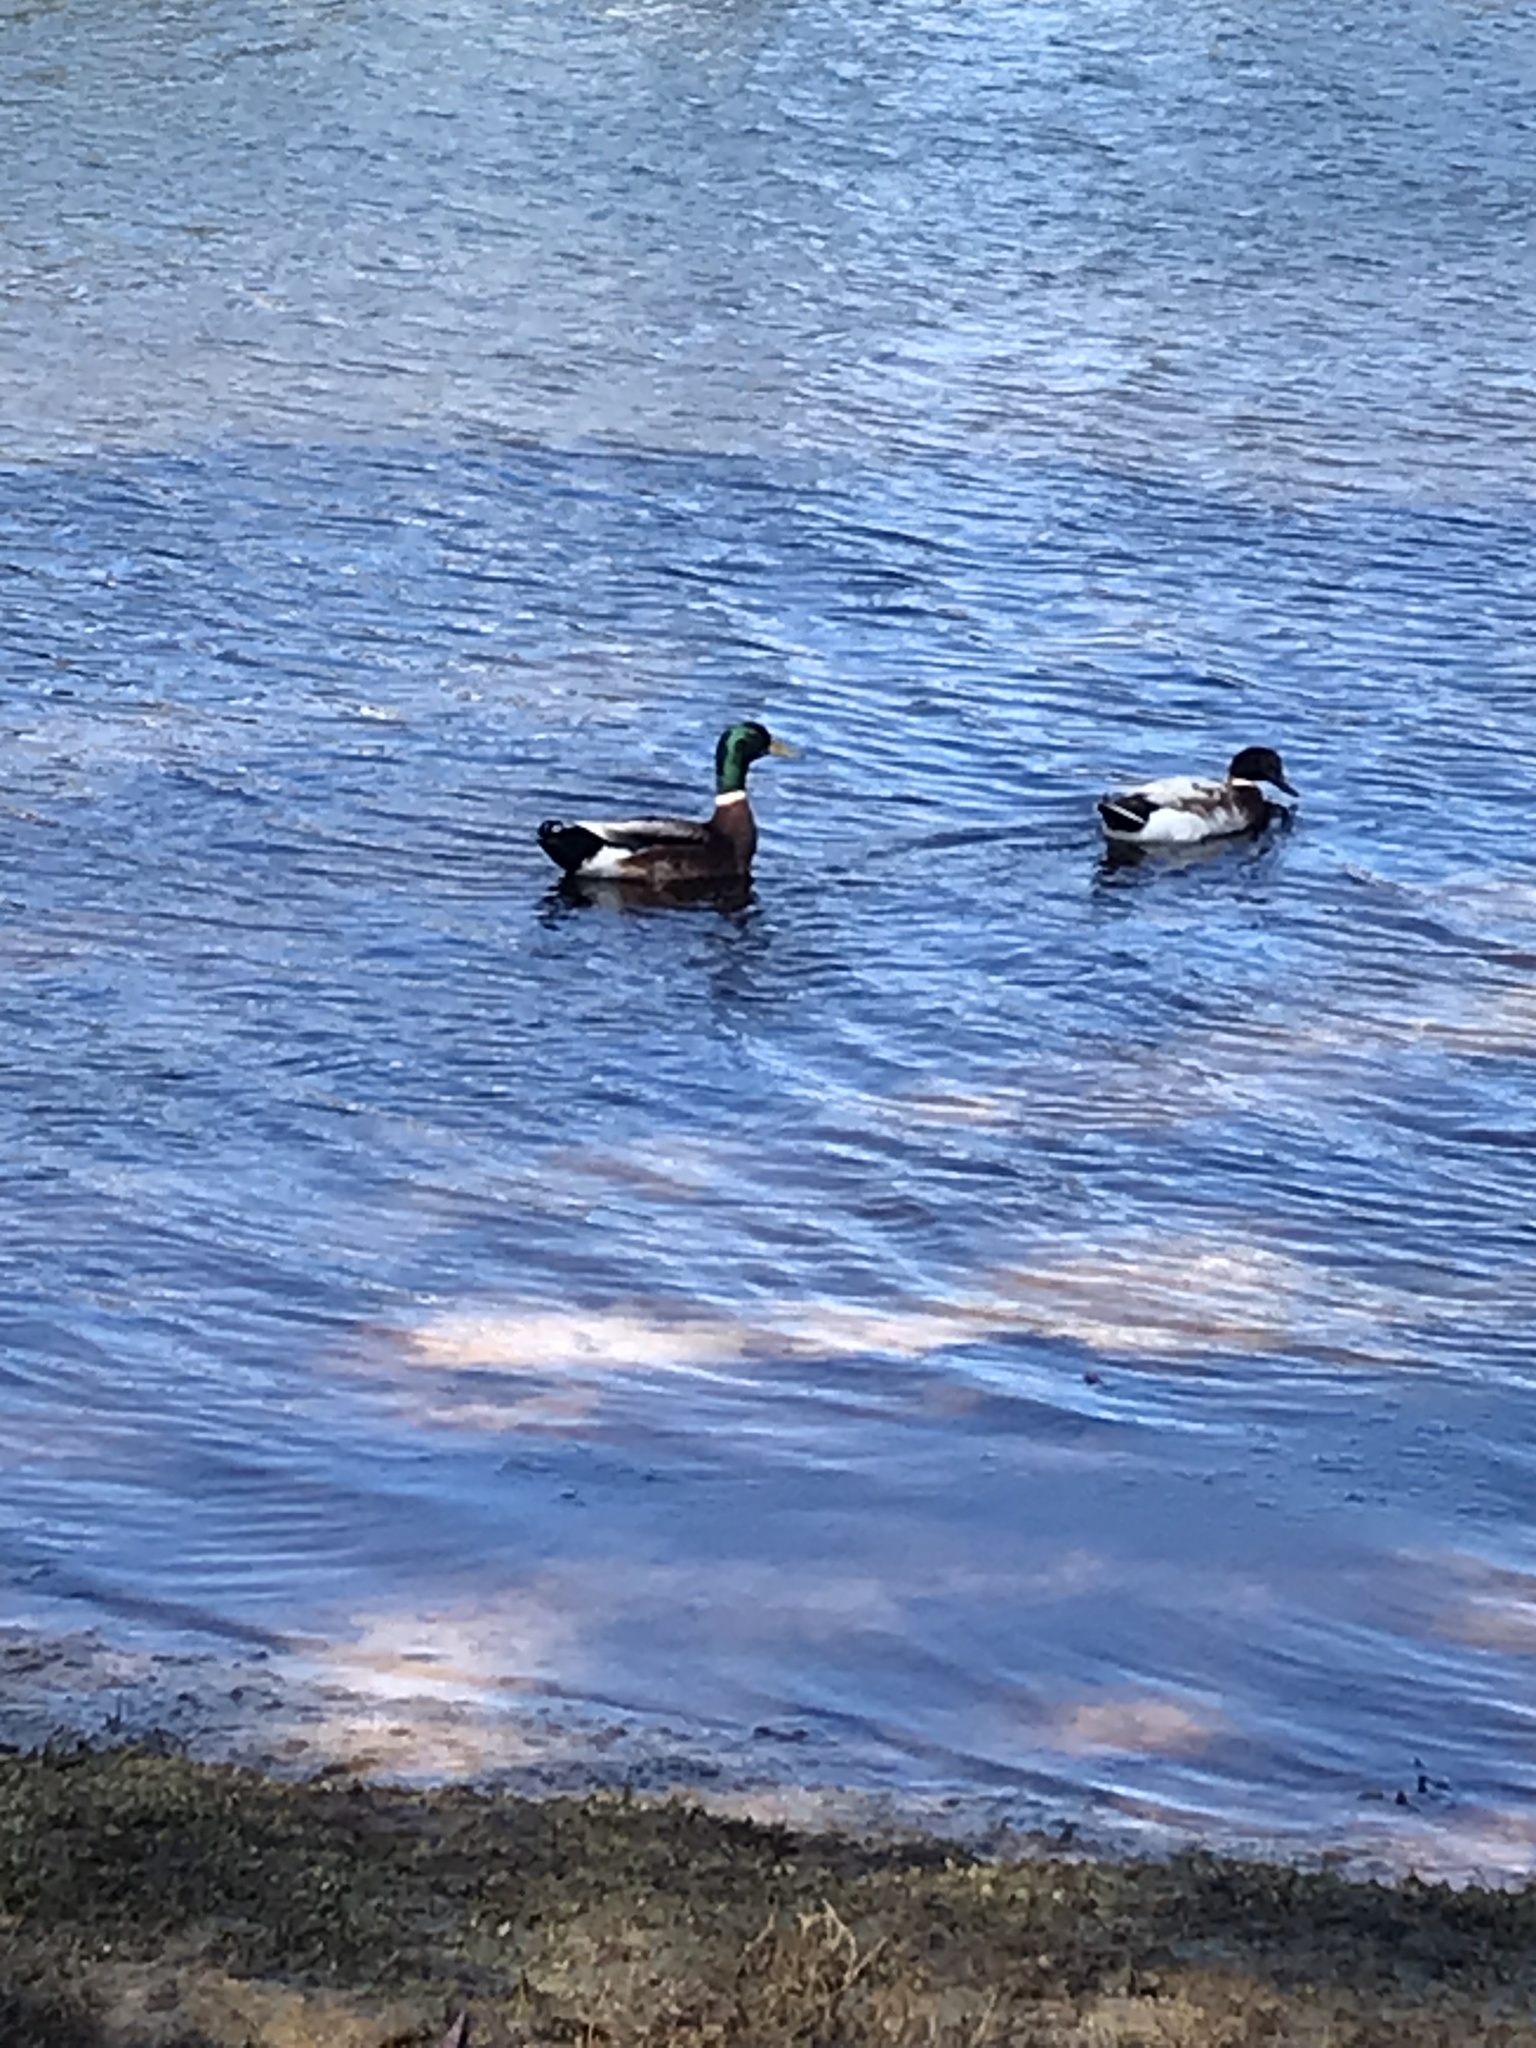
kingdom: Animalia
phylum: Chordata
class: Aves
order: Anseriformes
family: Anatidae
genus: Anas
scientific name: Anas platyrhynchos
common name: Mallard
